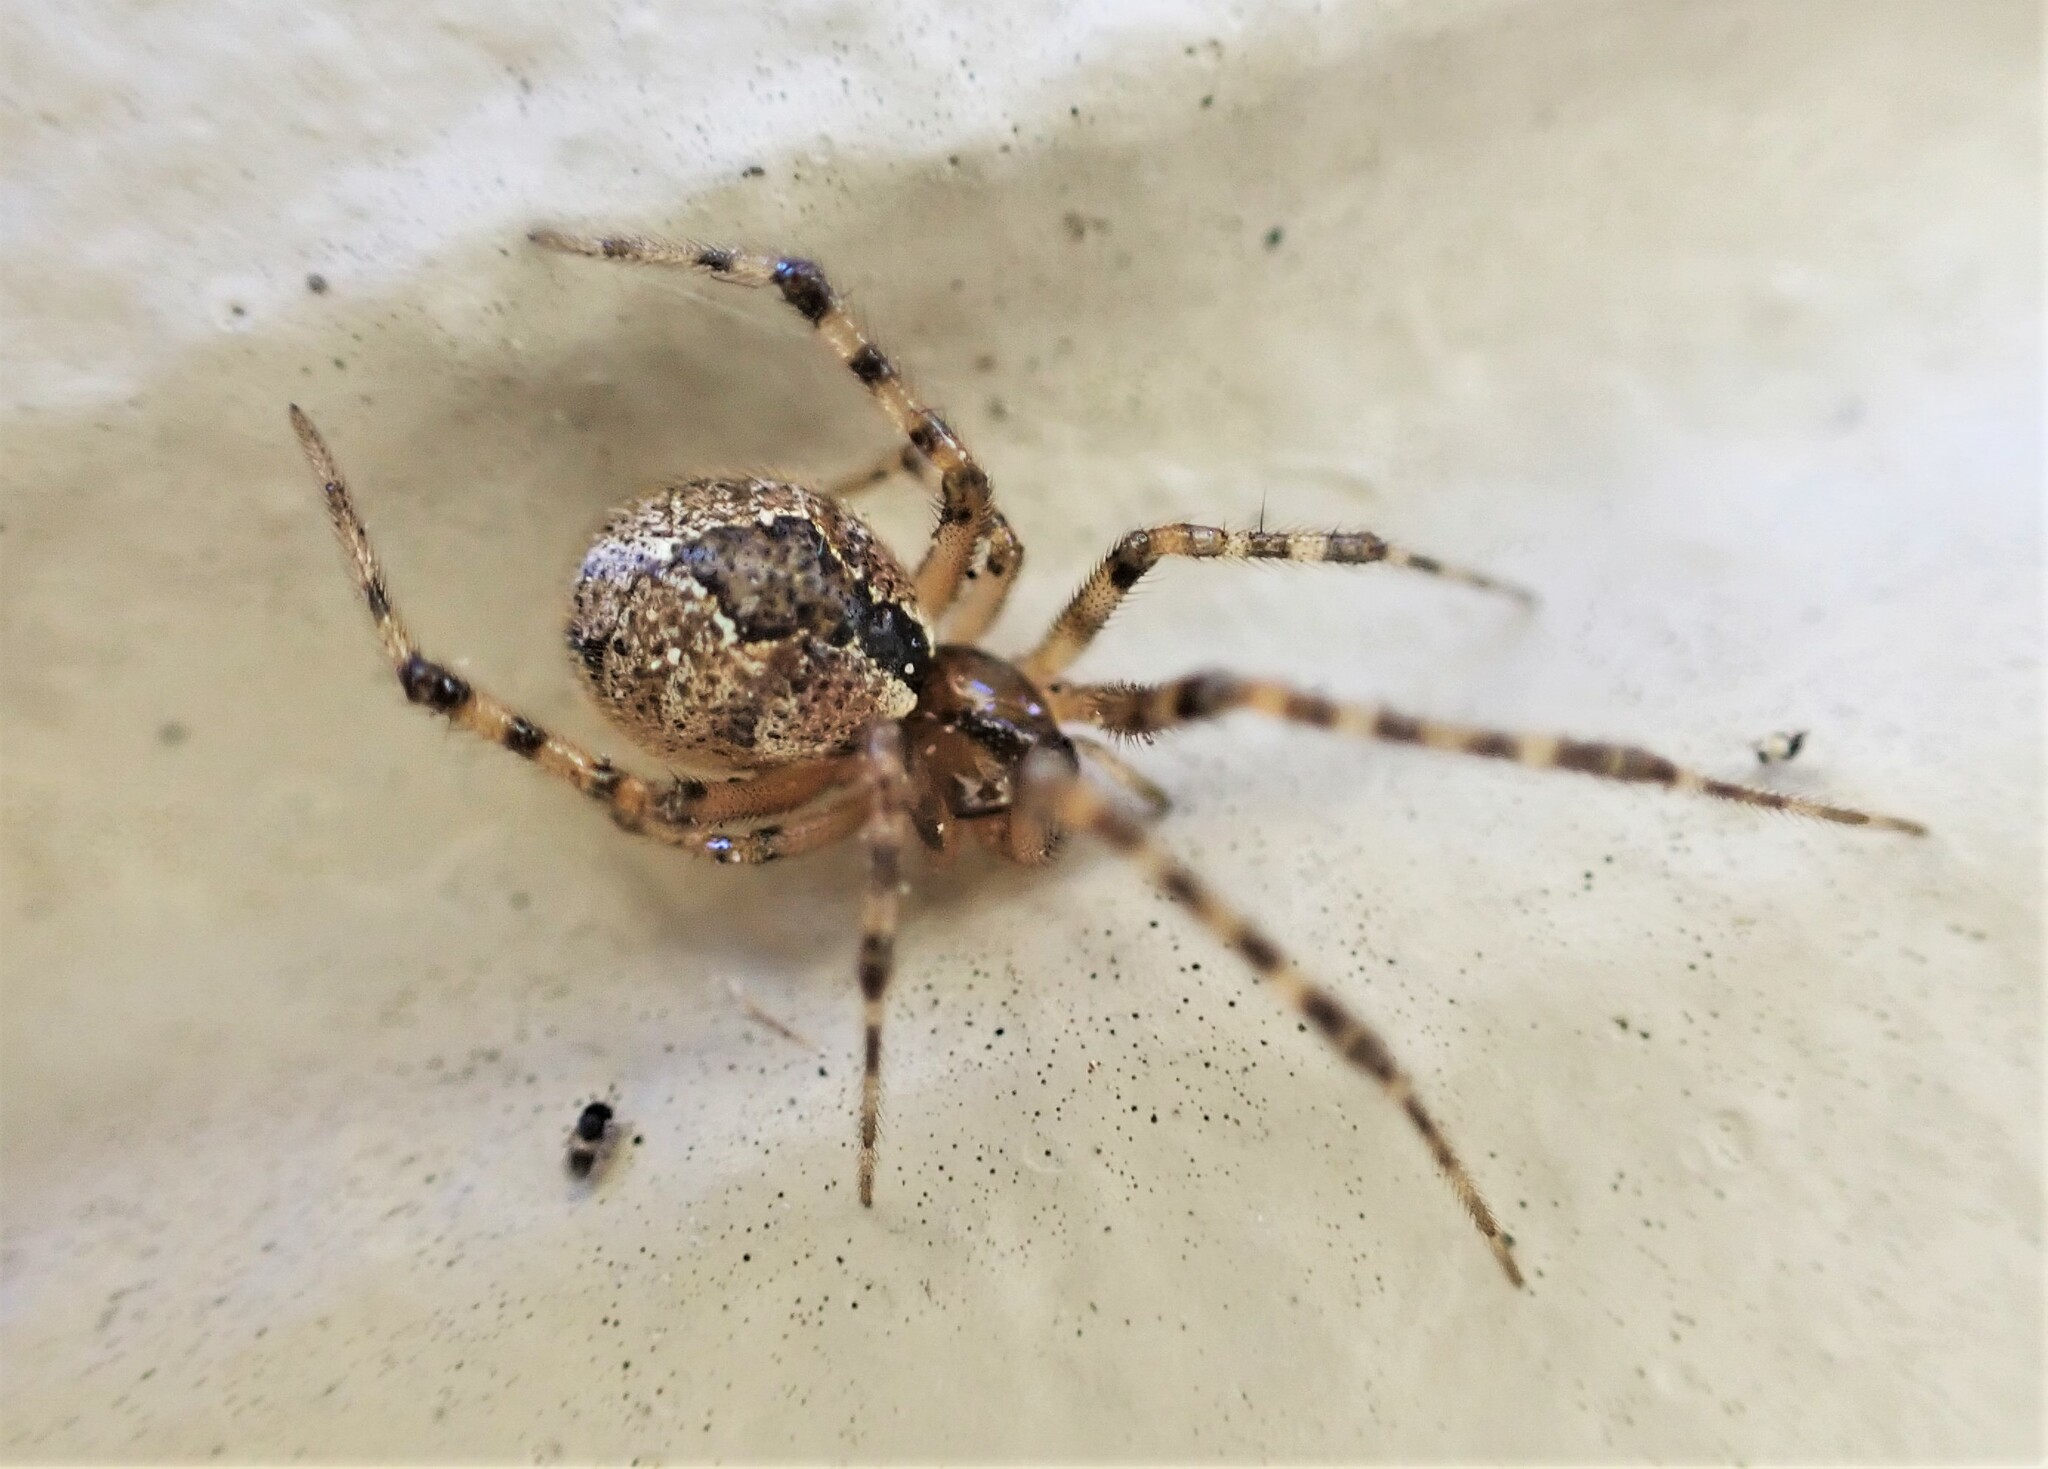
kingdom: Animalia
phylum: Arthropoda
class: Arachnida
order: Araneae
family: Theridiidae
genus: Cryptachaea
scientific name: Cryptachaea veruculata
